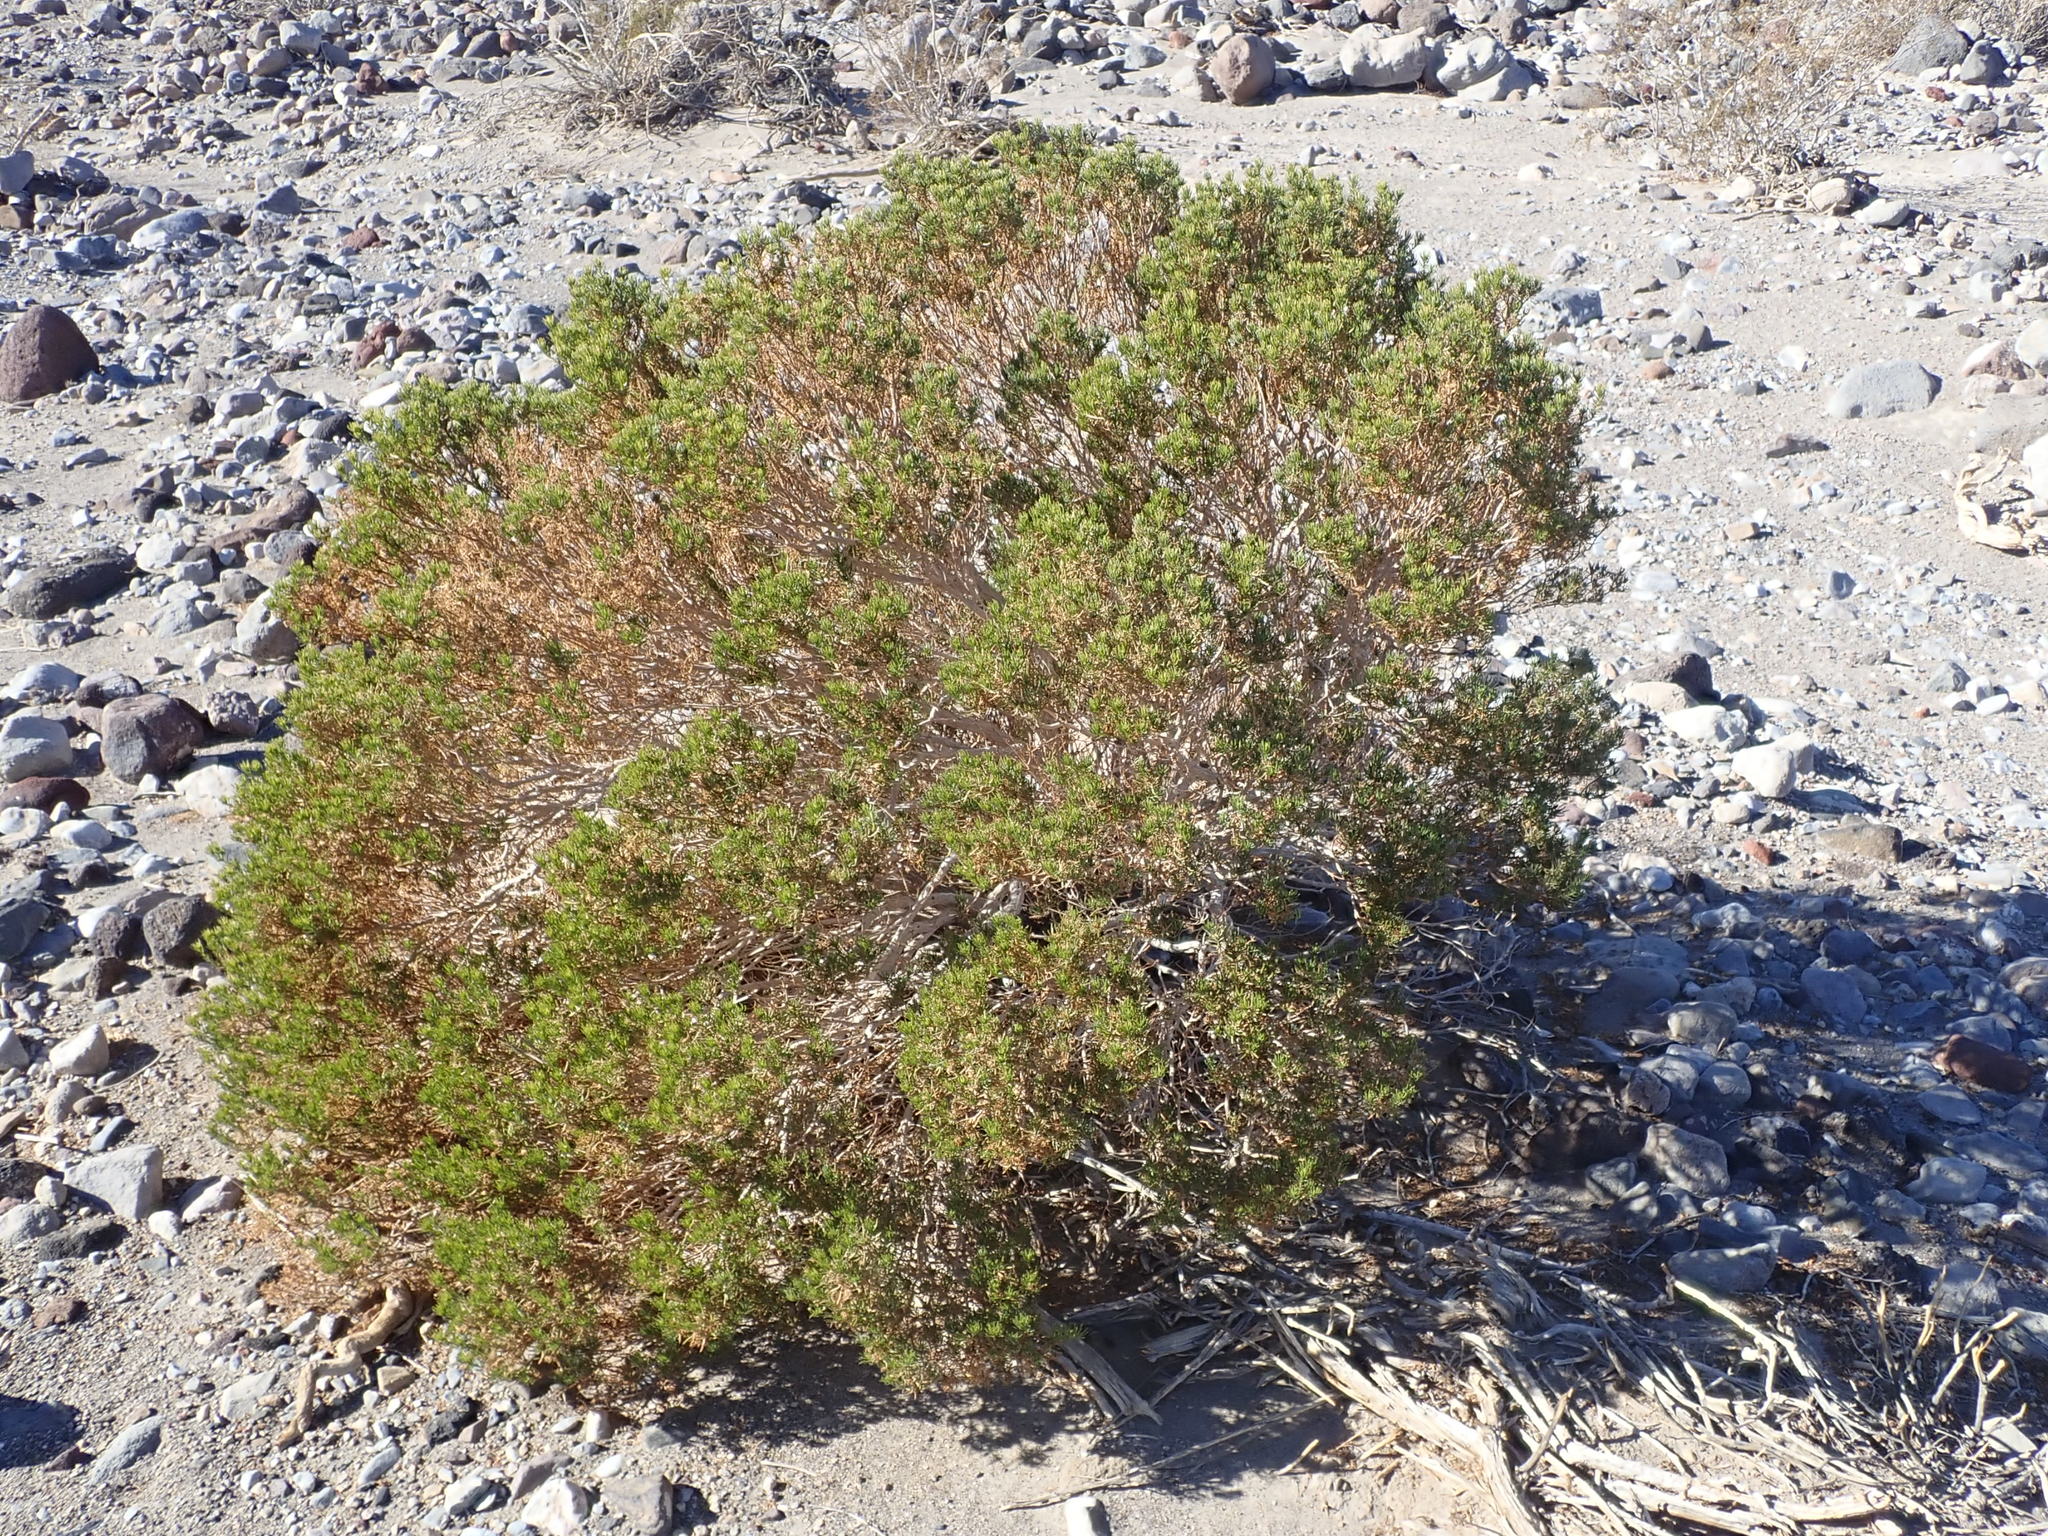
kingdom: Plantae
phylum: Tracheophyta
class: Magnoliopsida
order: Asterales
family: Asteraceae
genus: Peucephyllum
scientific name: Peucephyllum schottii
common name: Pygmy-cedar
